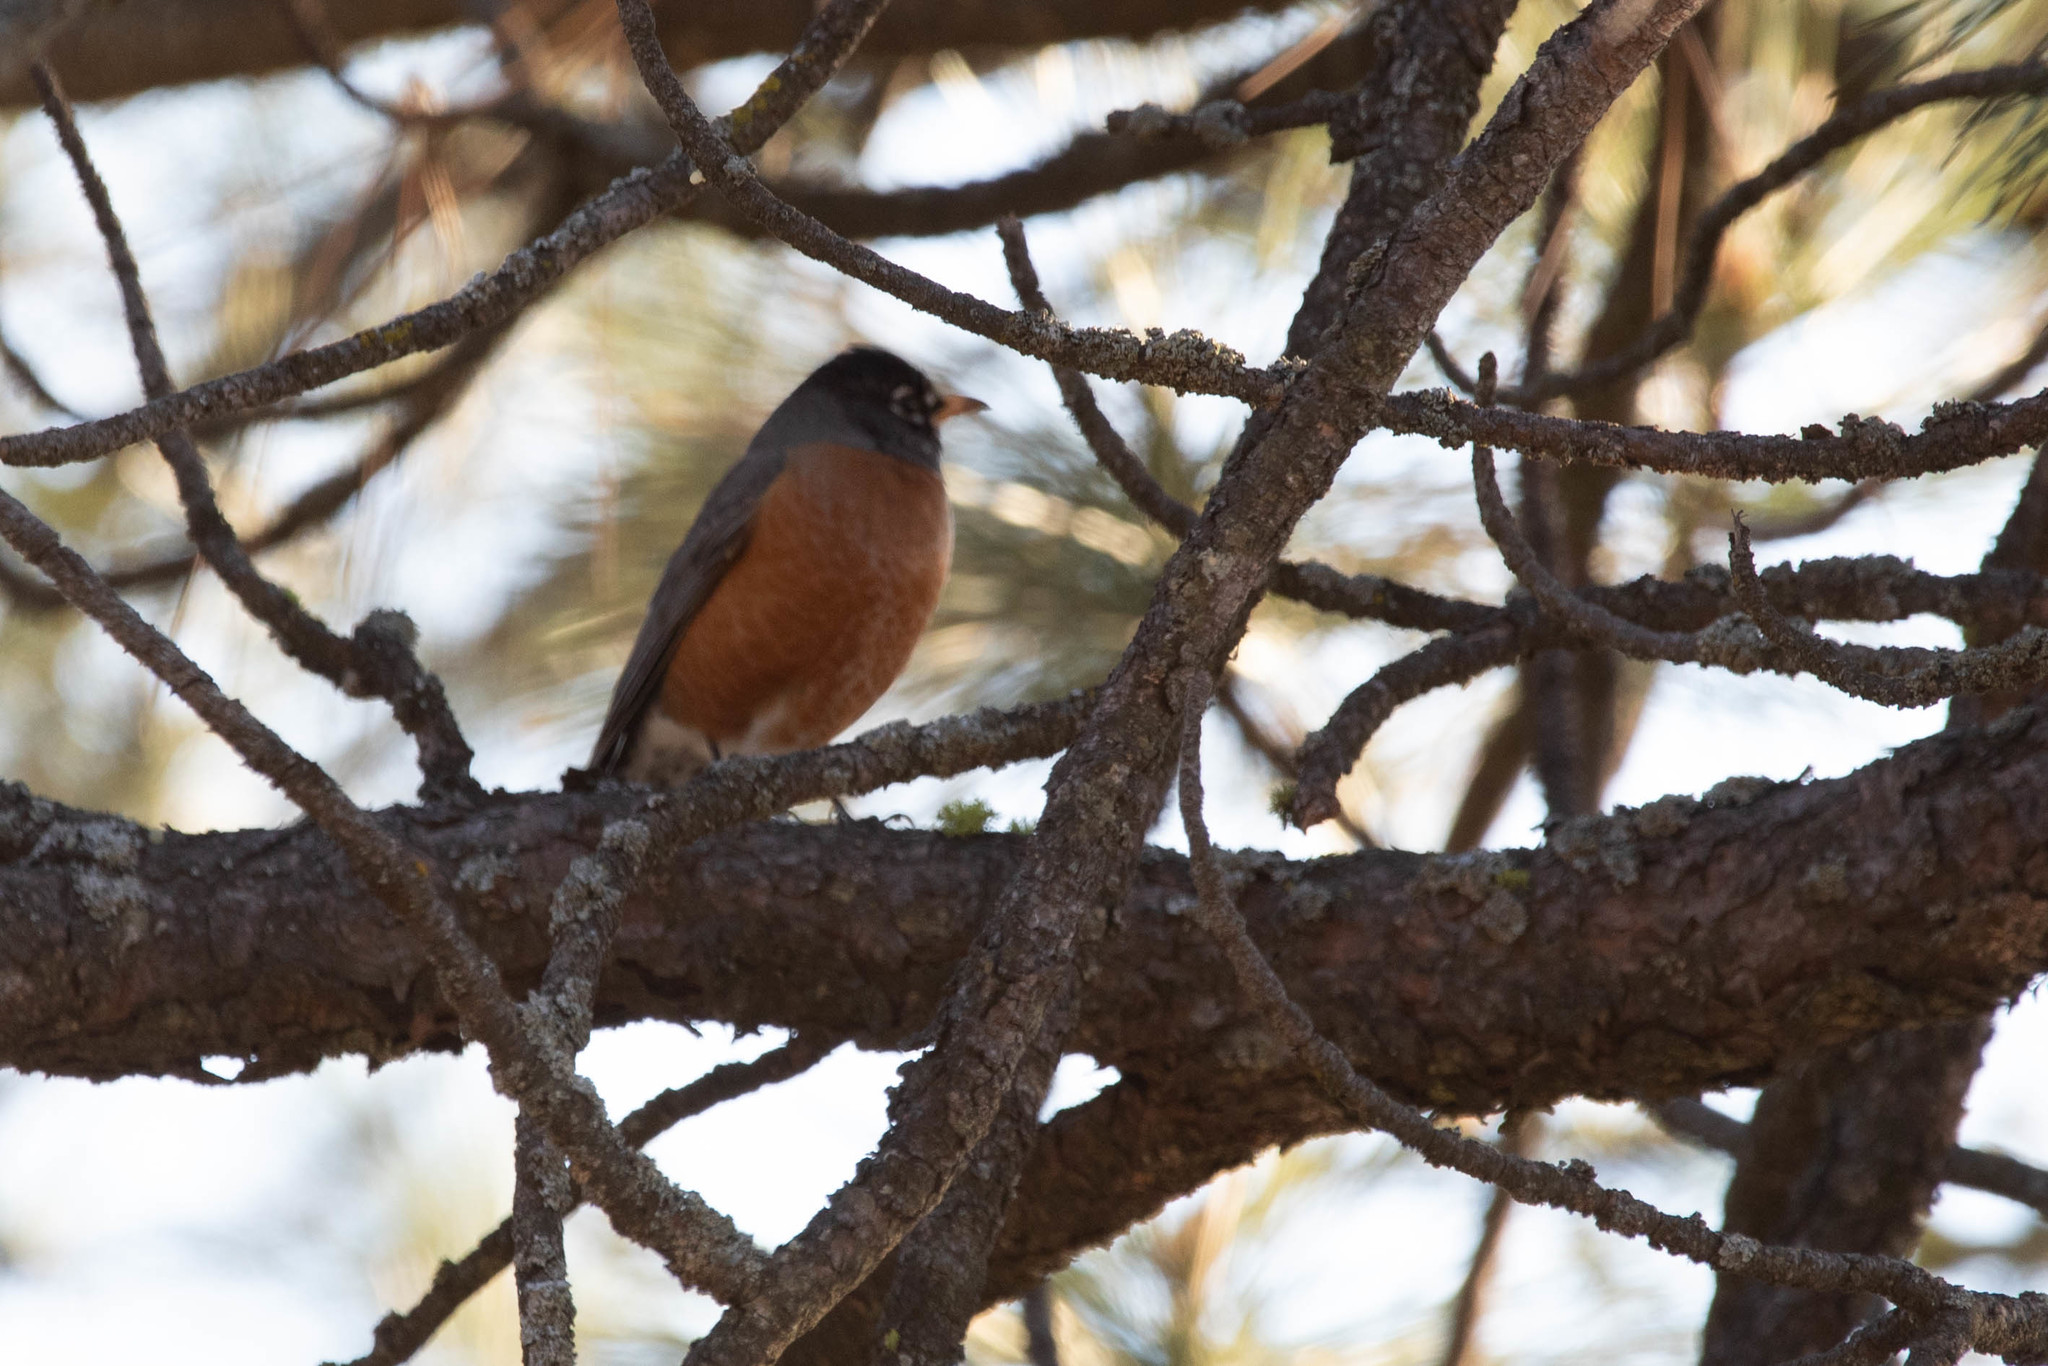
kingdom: Animalia
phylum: Chordata
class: Aves
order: Passeriformes
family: Turdidae
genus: Turdus
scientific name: Turdus migratorius
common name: American robin
